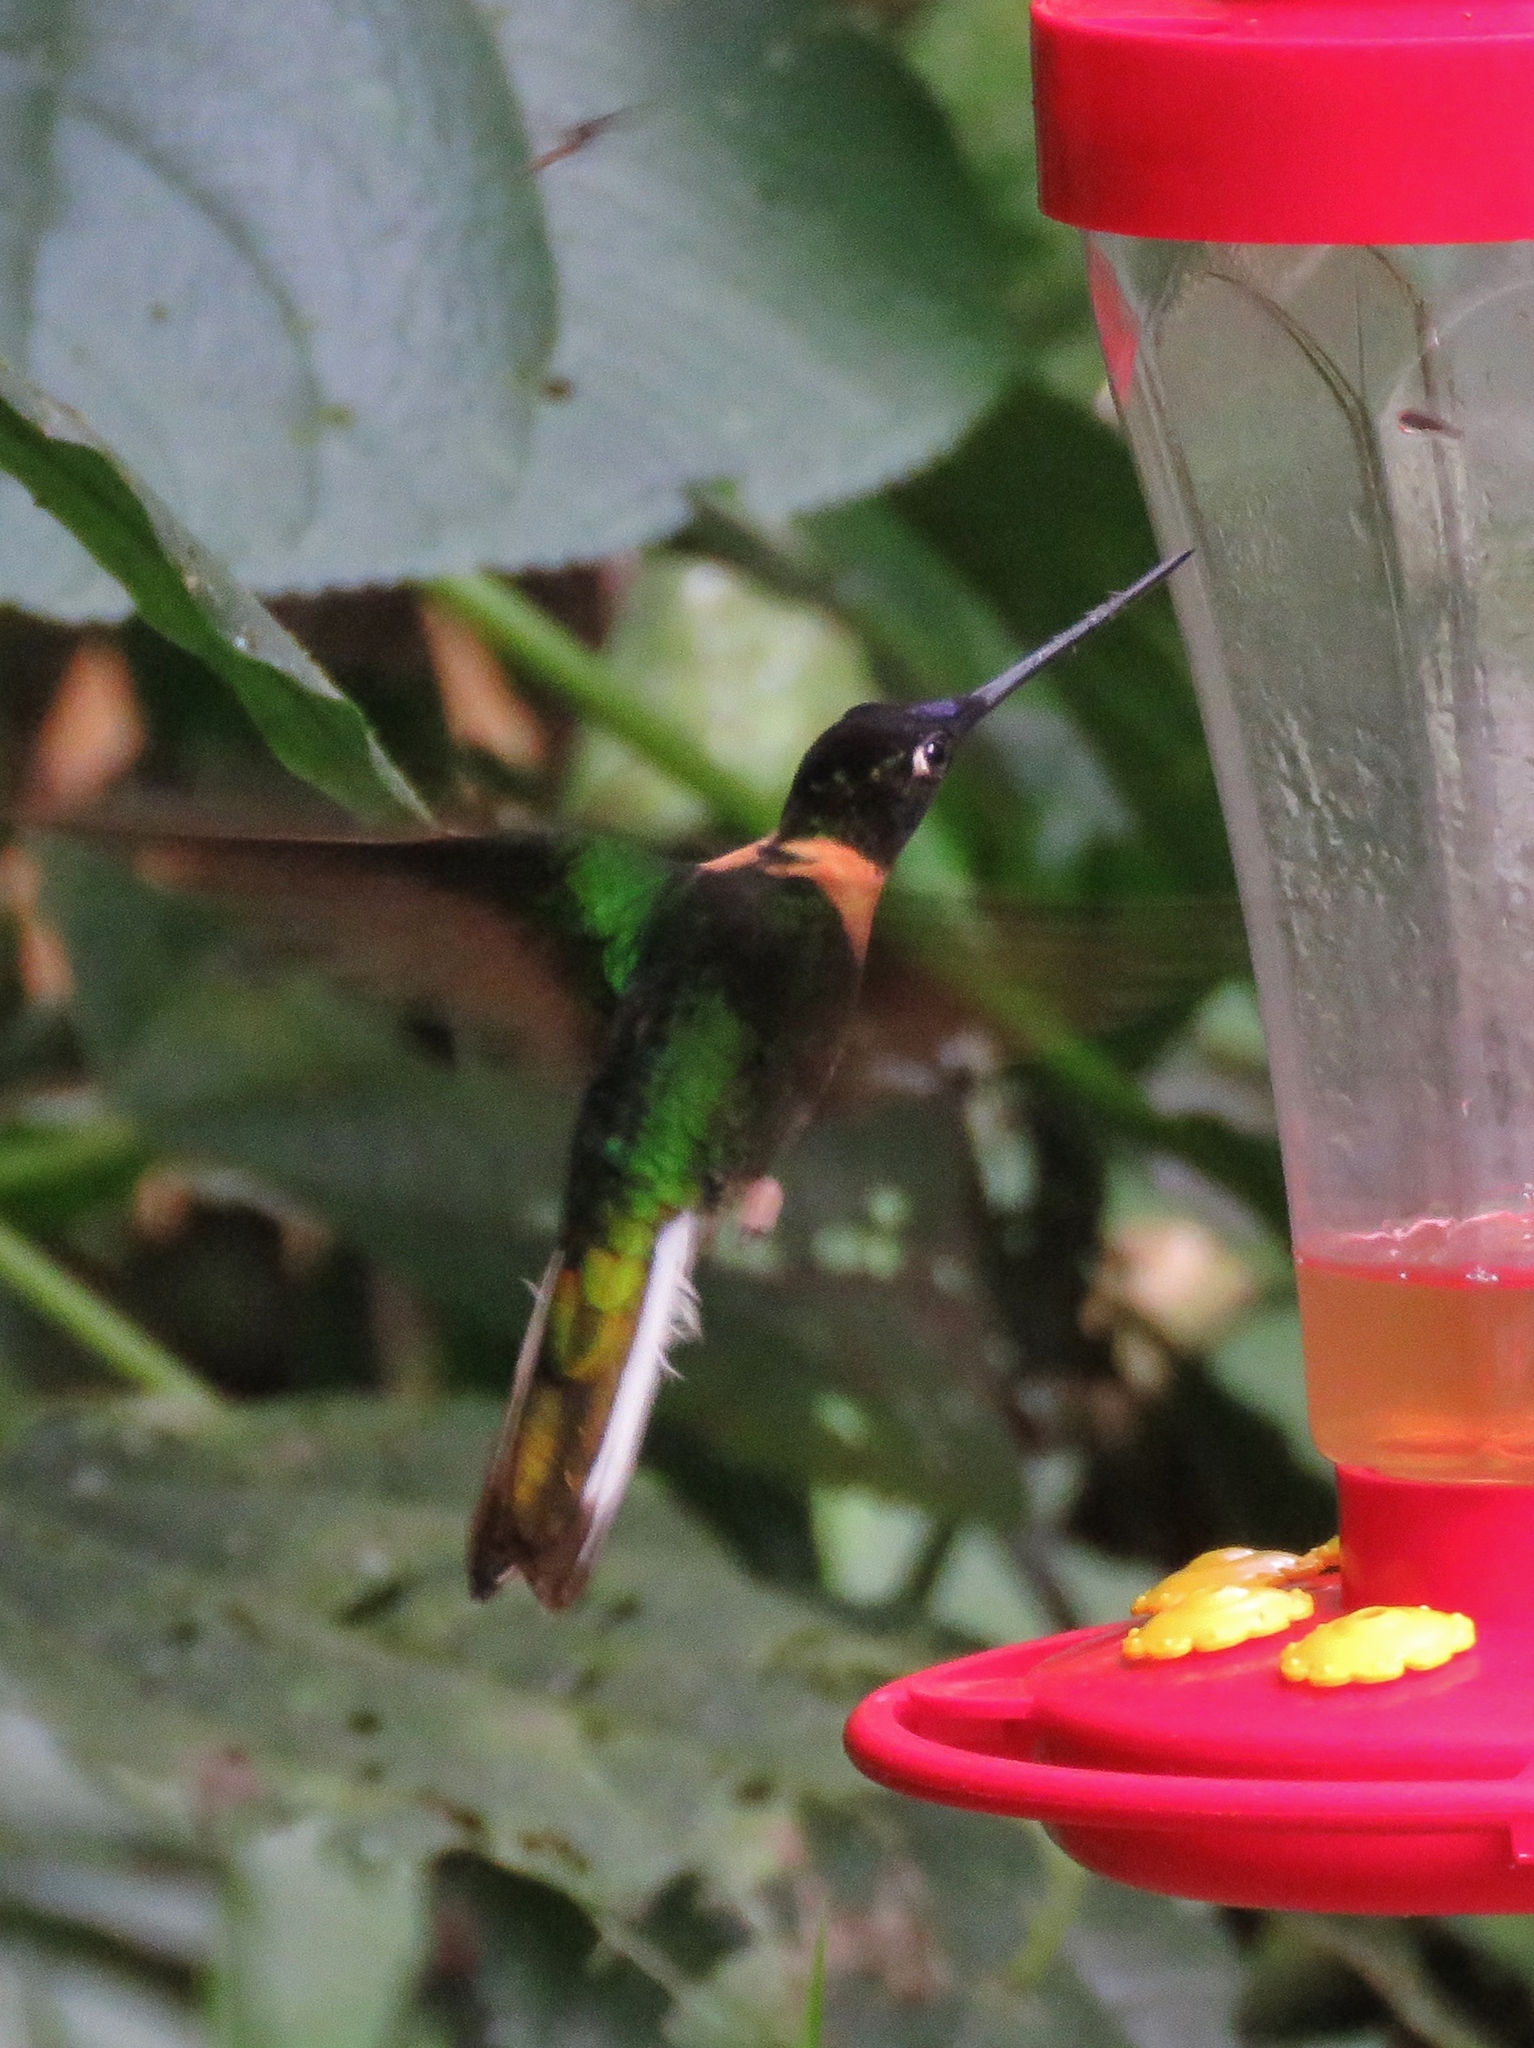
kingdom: Animalia
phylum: Chordata
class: Aves
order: Apodiformes
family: Trochilidae
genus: Coeligena
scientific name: Coeligena torquata
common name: Collared inca
